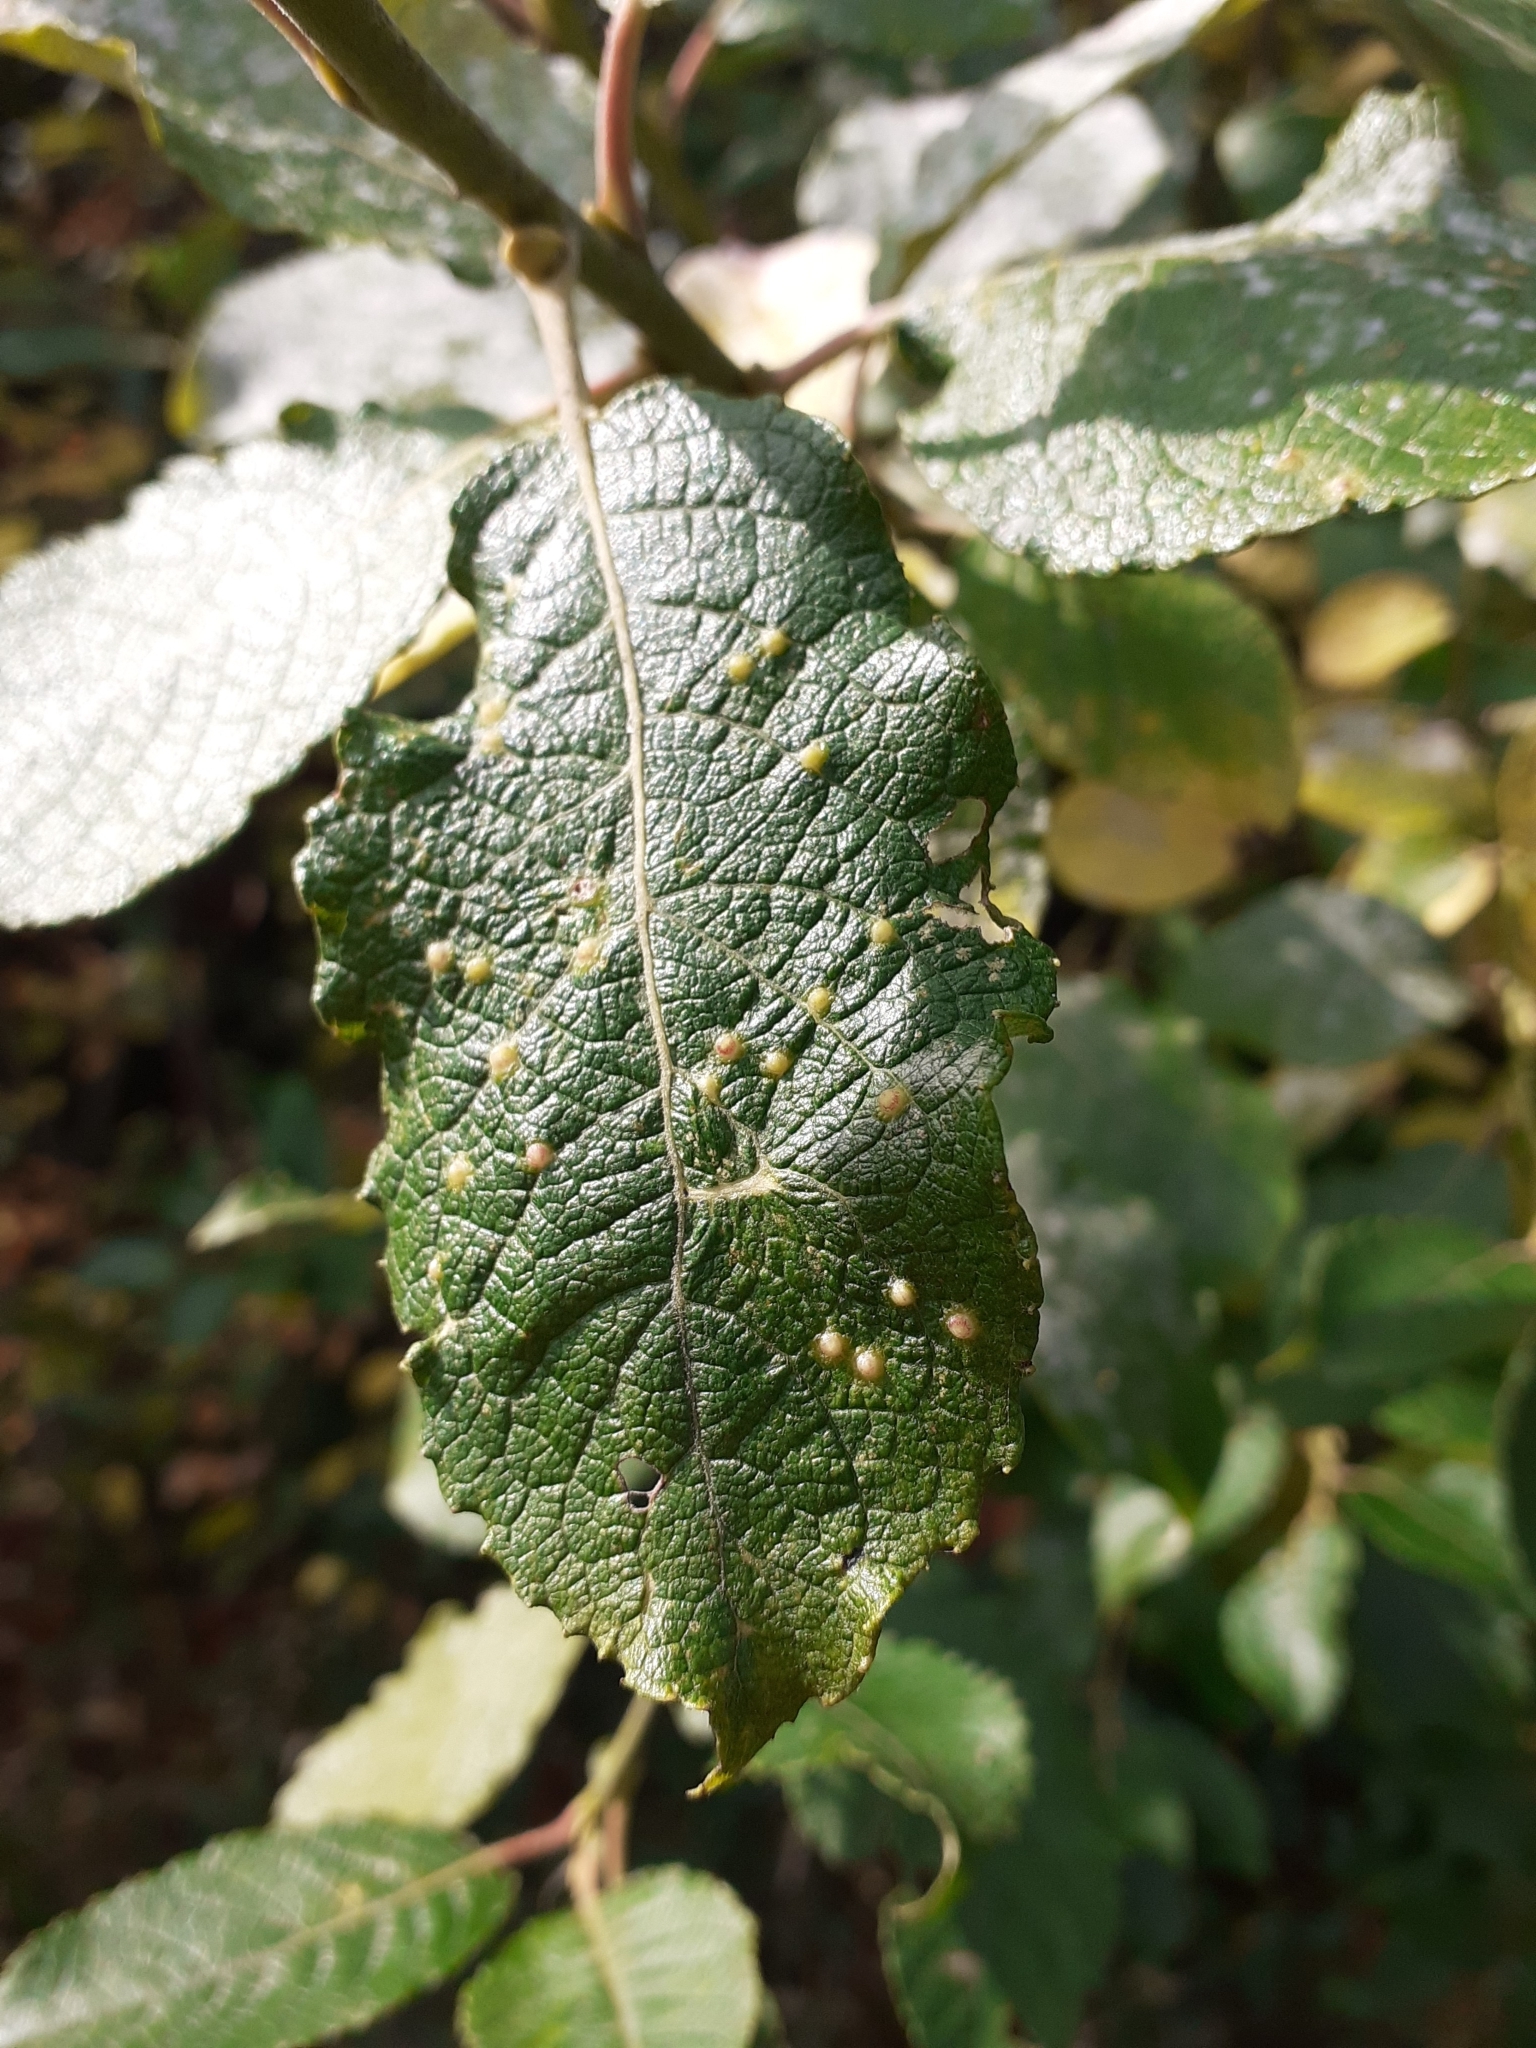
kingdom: Animalia
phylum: Arthropoda
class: Insecta
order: Diptera
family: Cecidomyiidae
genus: Iteomyia
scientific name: Iteomyia capreae
